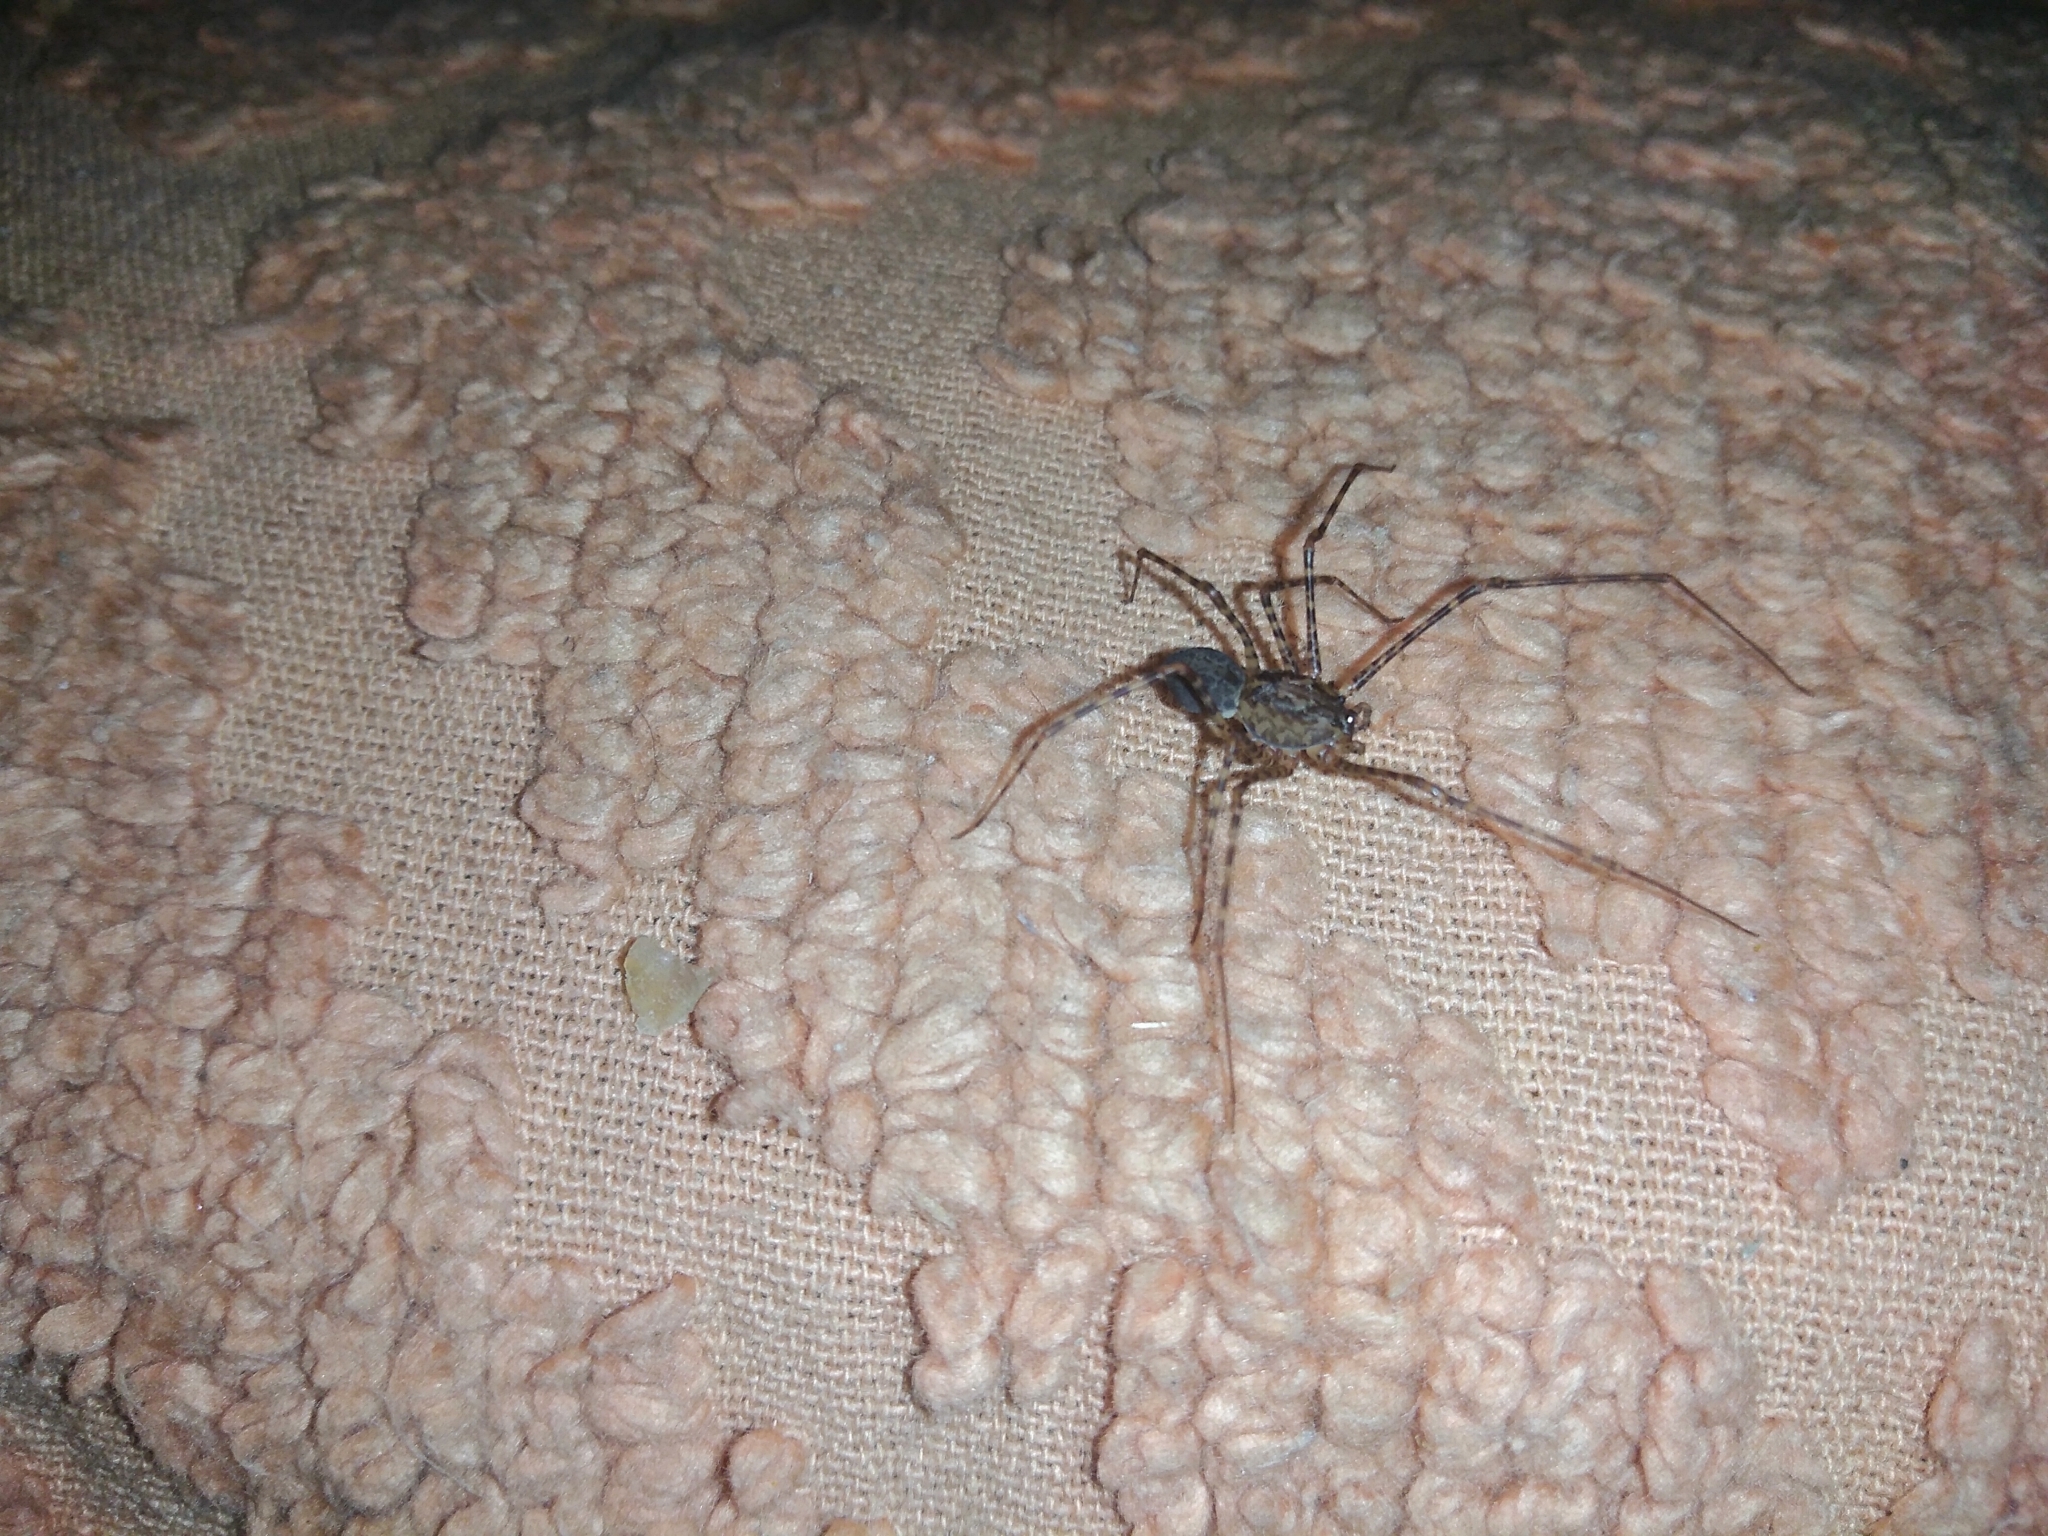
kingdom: Animalia
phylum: Arthropoda
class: Arachnida
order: Araneae
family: Scytodidae
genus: Scytodes
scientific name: Scytodes globula
